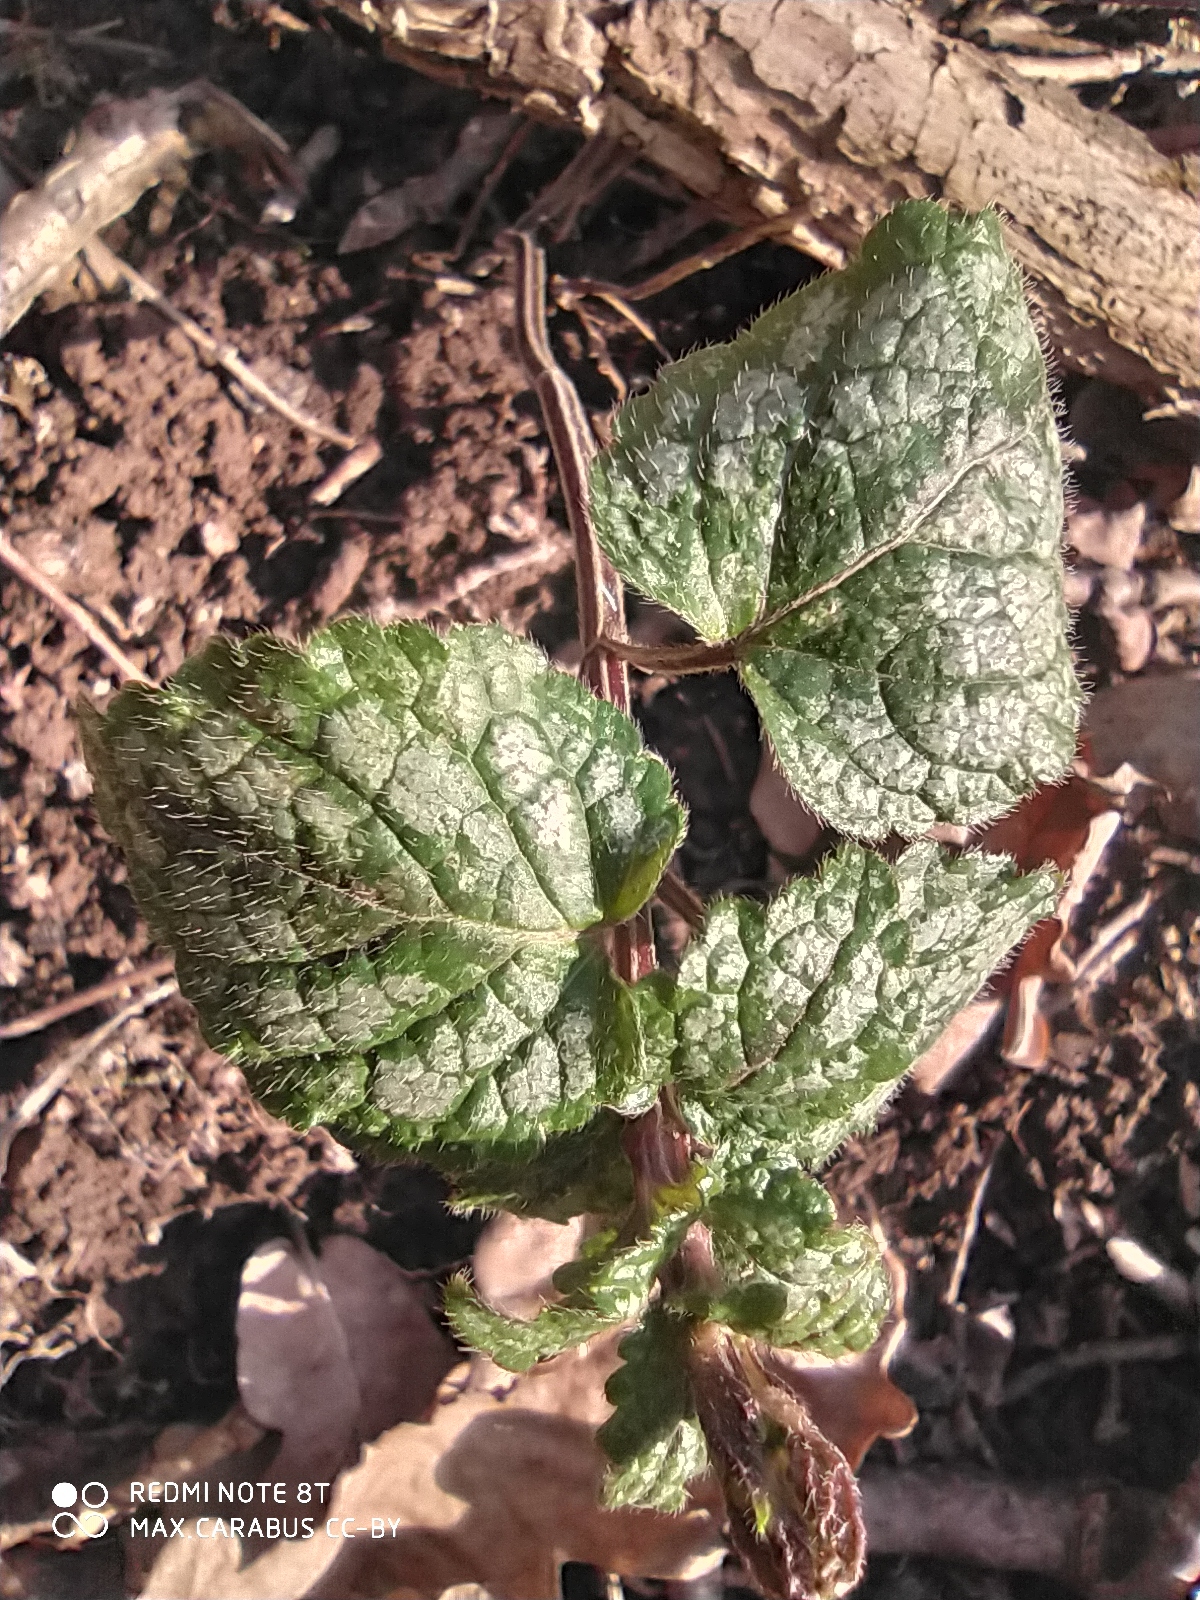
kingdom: Plantae
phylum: Tracheophyta
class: Magnoliopsida
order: Lamiales
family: Lamiaceae
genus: Lamium
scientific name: Lamium galeobdolon
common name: Yellow archangel
